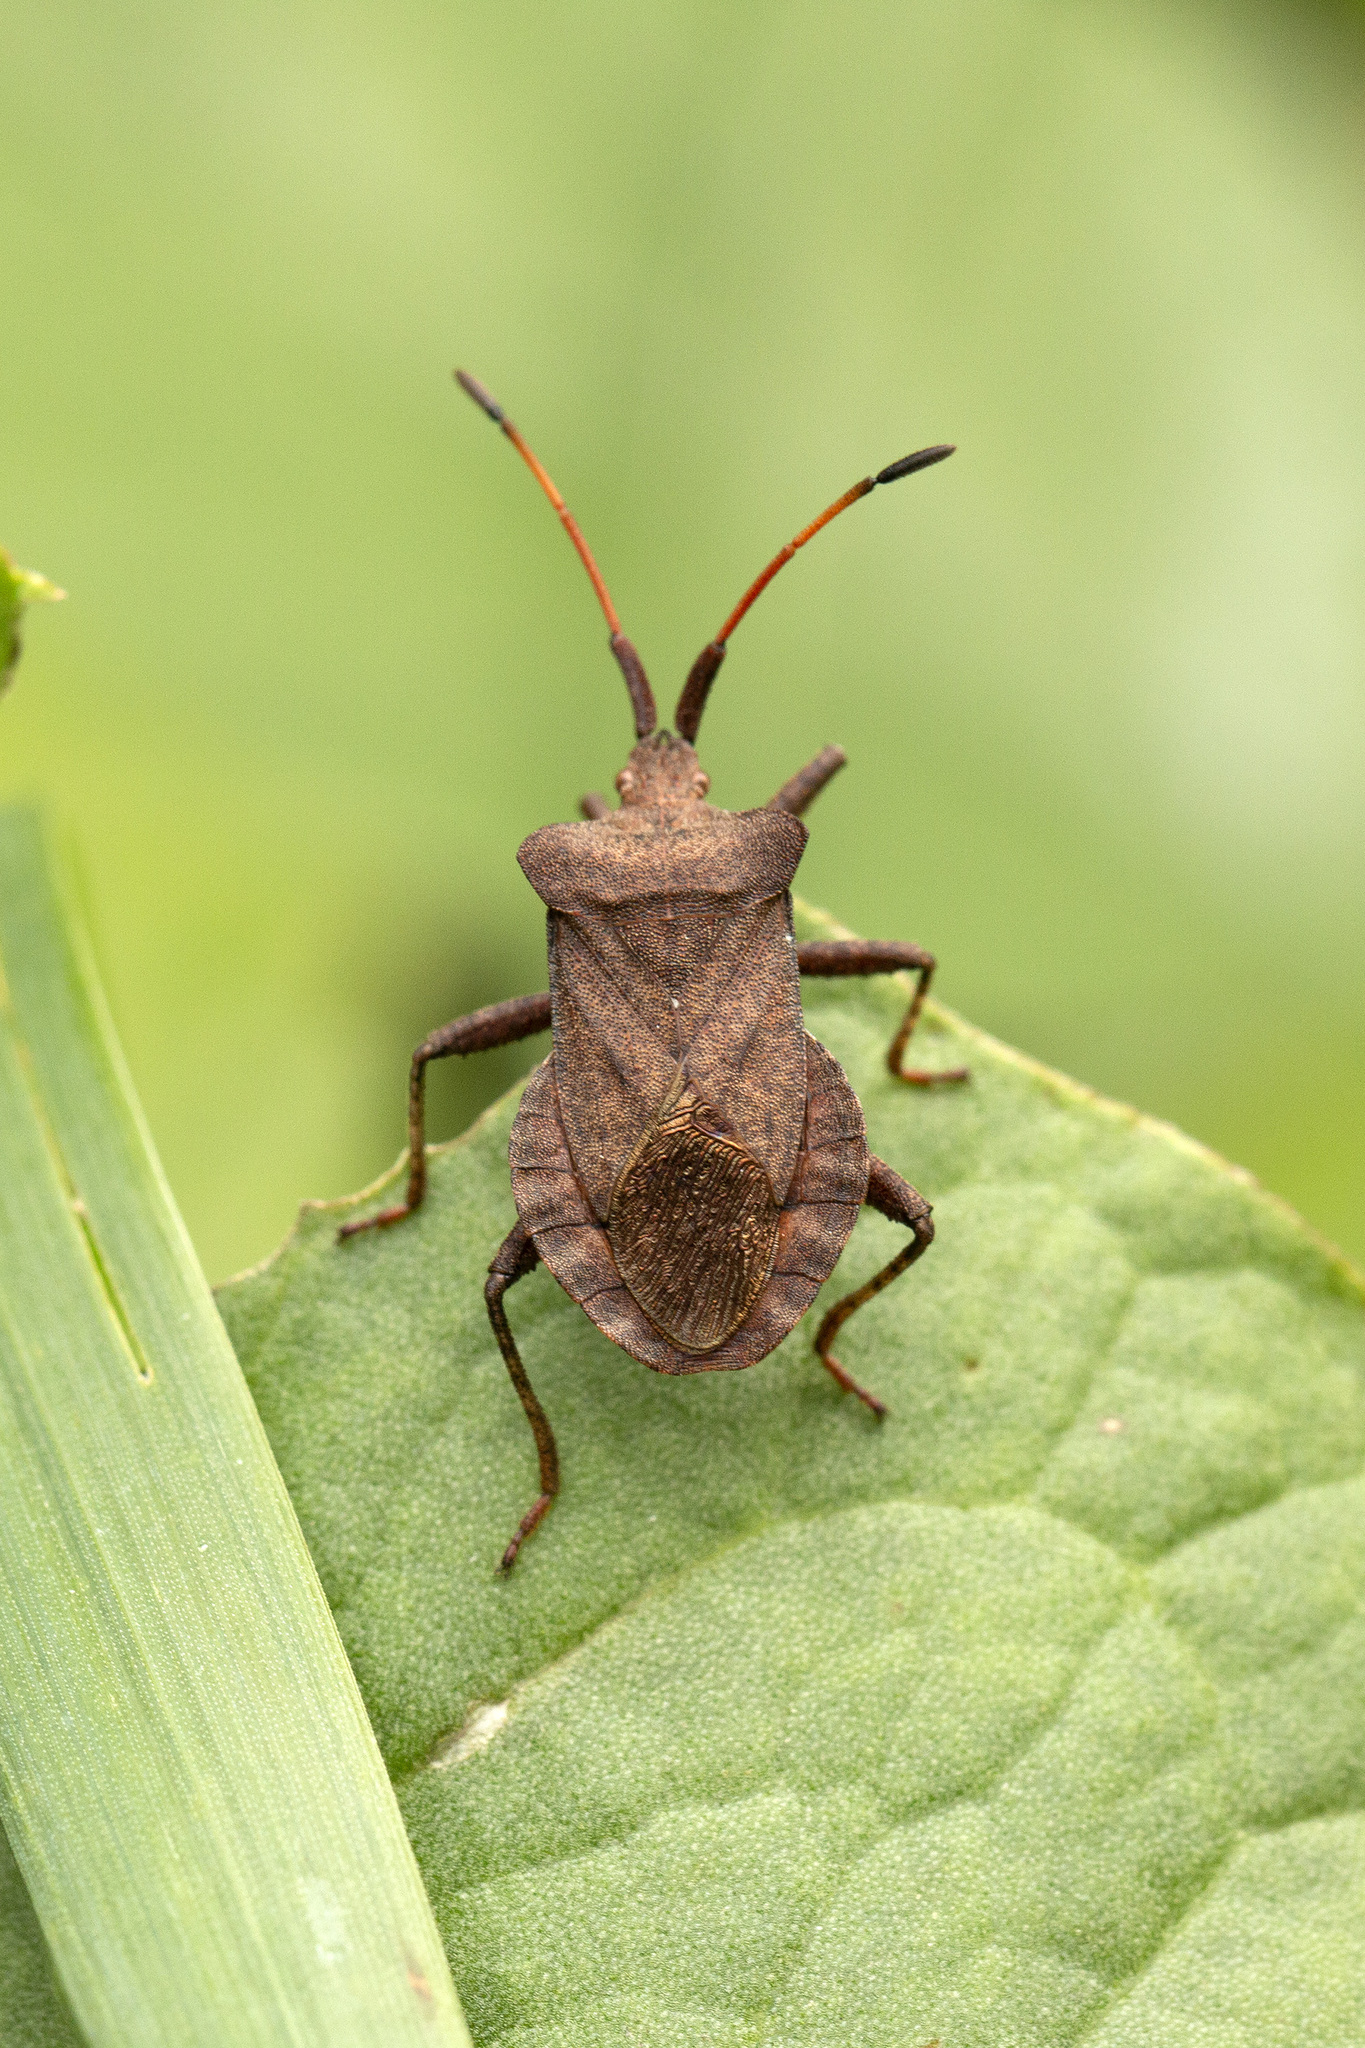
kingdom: Animalia
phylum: Arthropoda
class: Insecta
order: Hemiptera
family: Coreidae
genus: Coreus
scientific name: Coreus marginatus
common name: Dock bug
